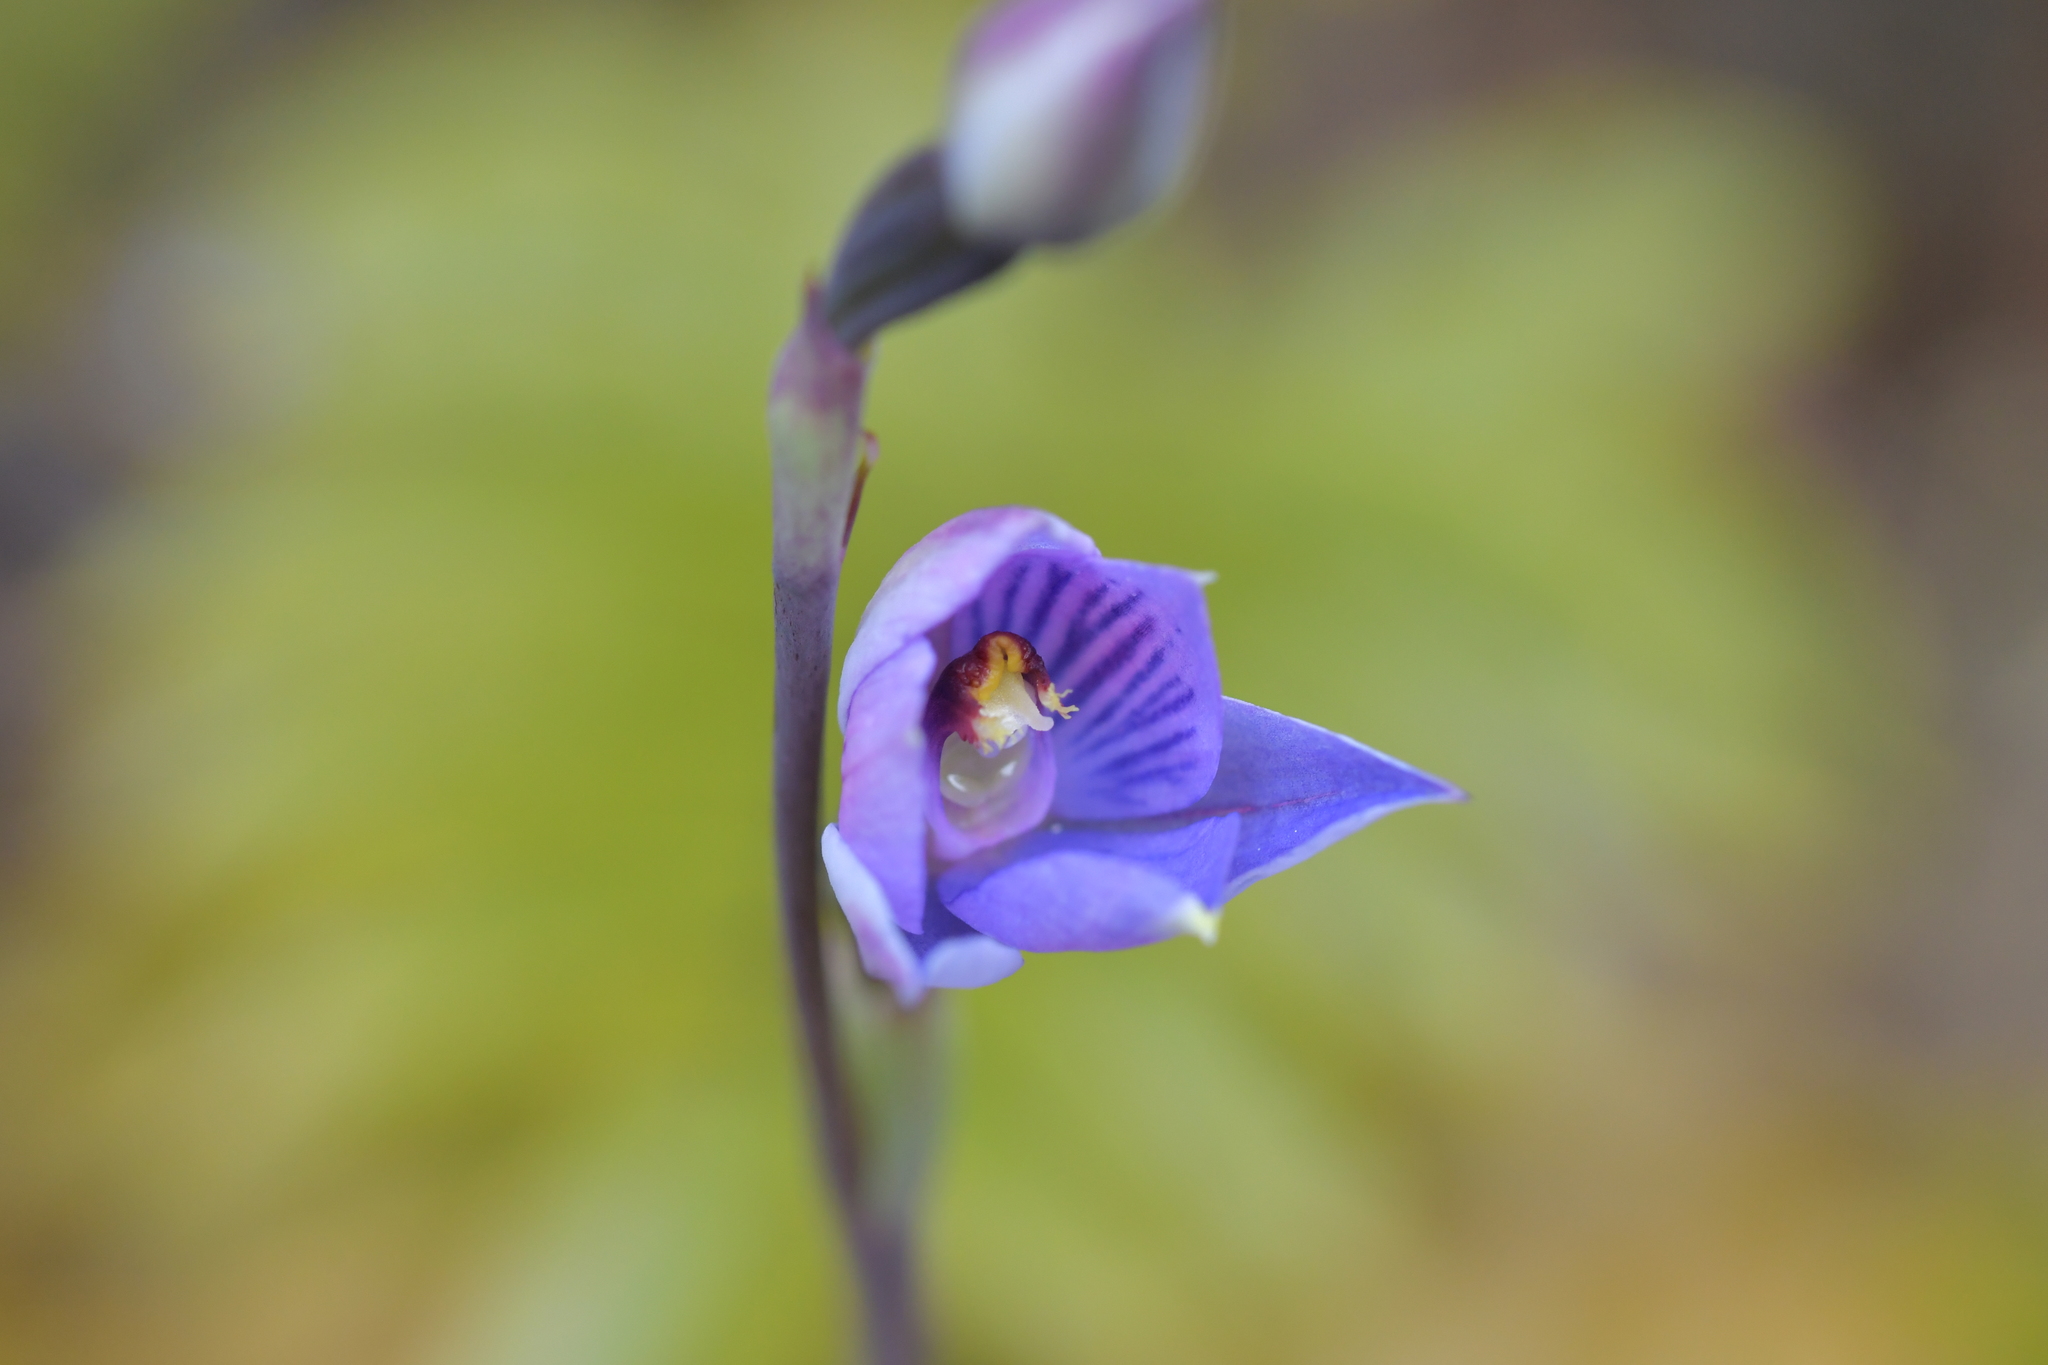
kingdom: Plantae
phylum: Tracheophyta
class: Liliopsida
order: Asparagales
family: Orchidaceae
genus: Thelymitra
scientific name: Thelymitra pulchella
